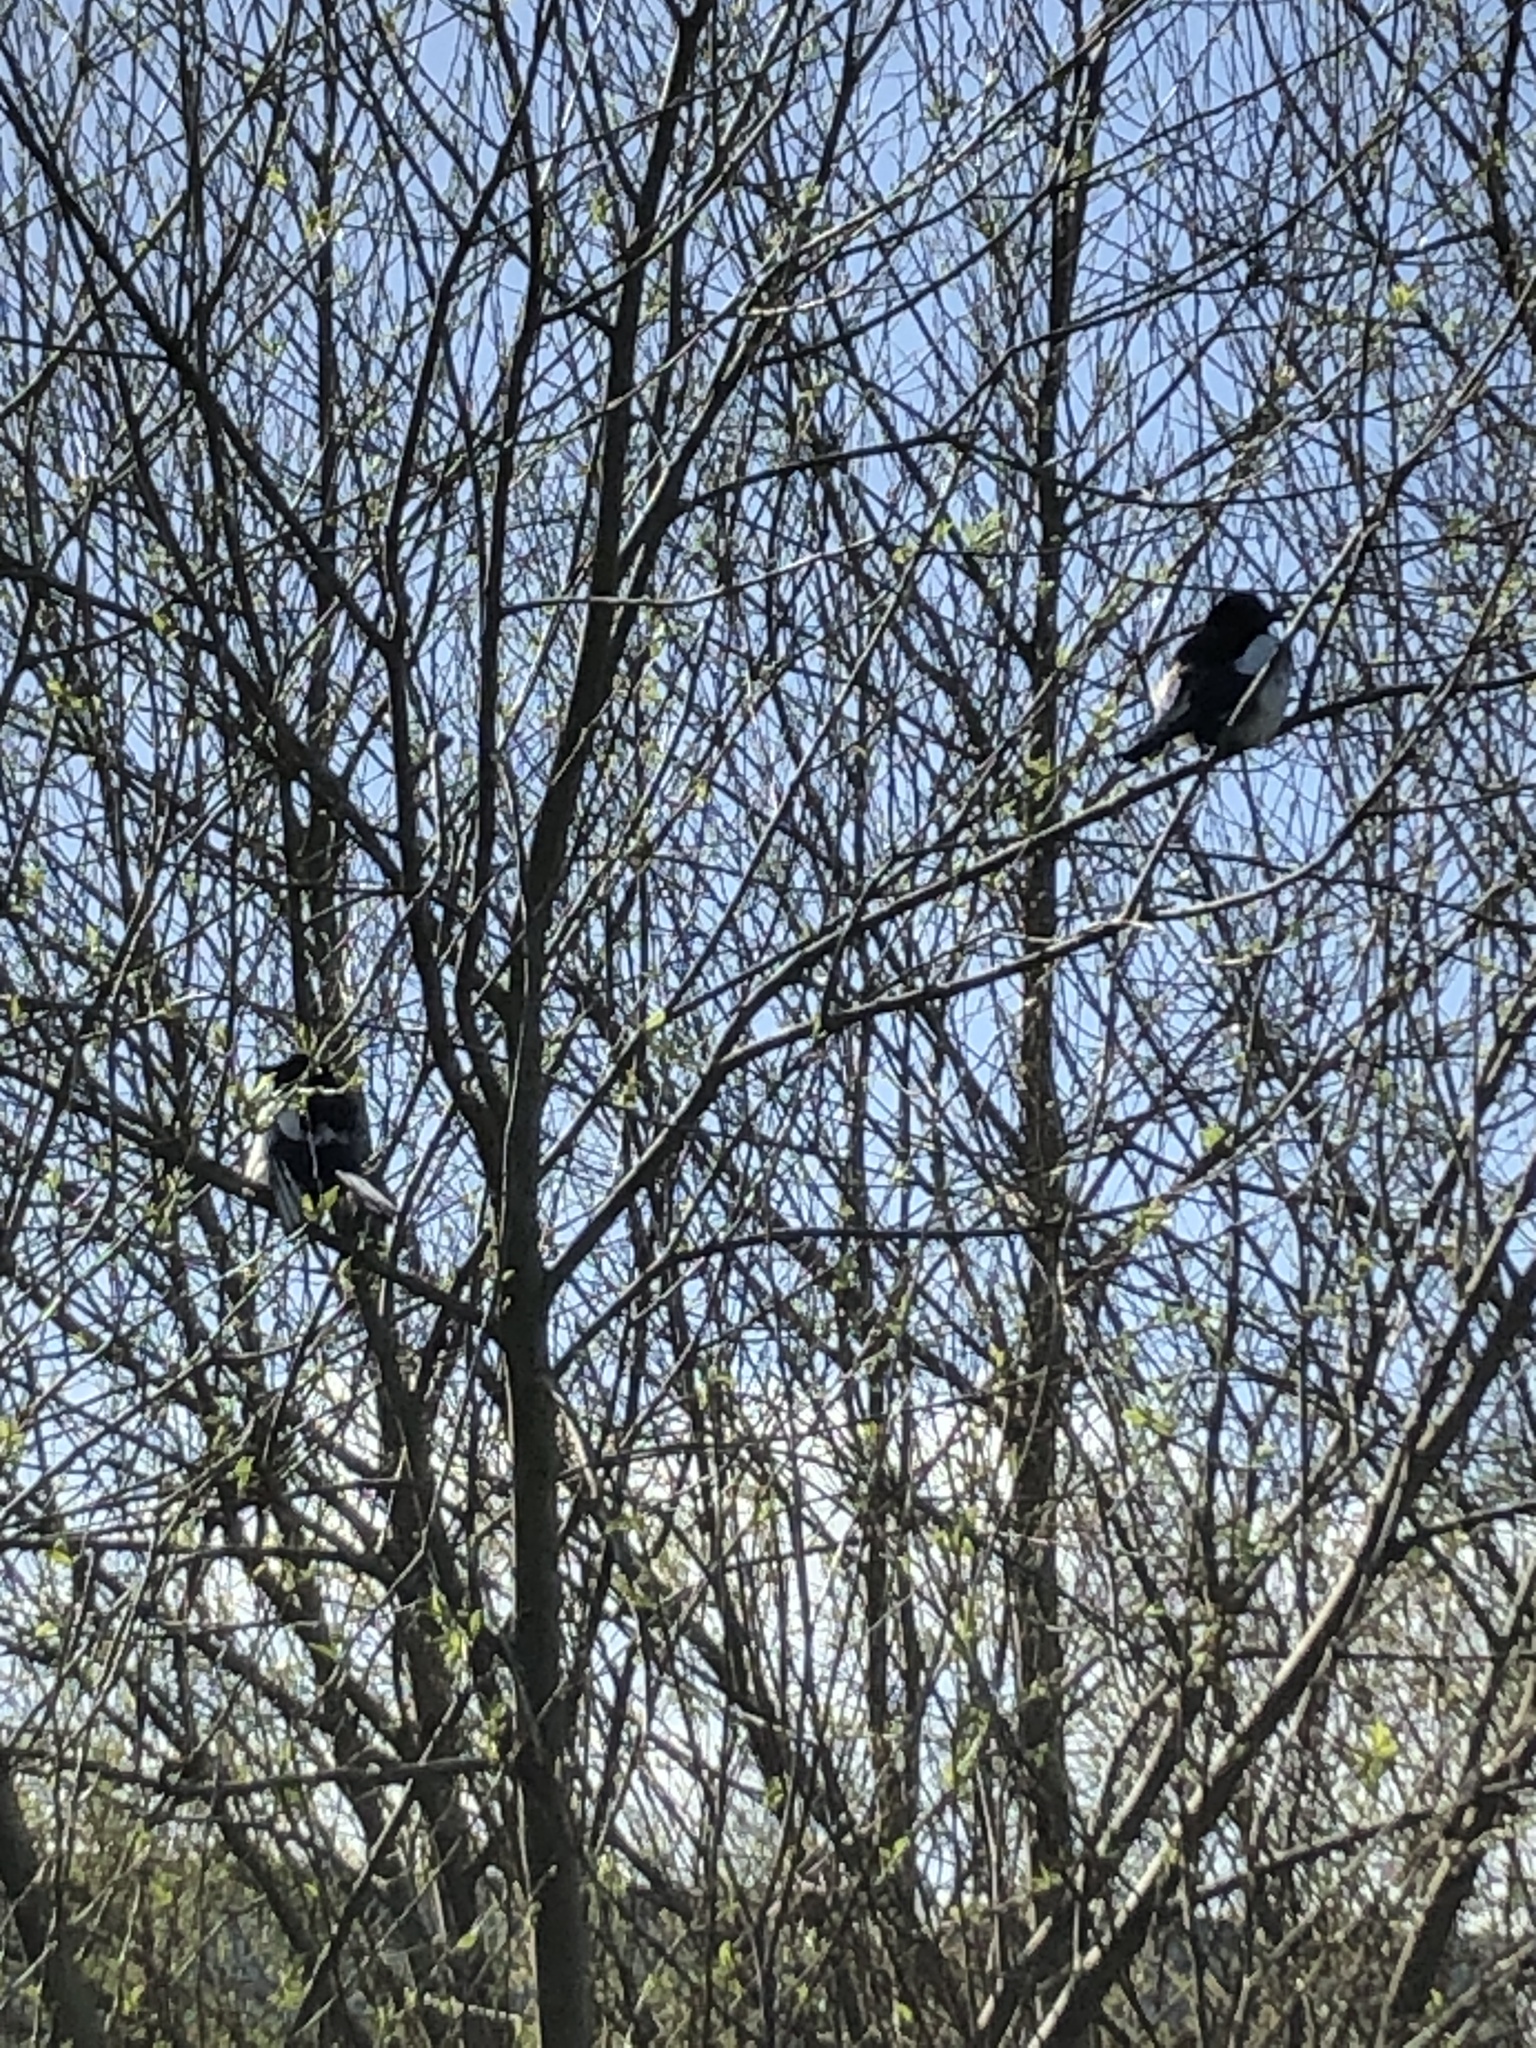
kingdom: Animalia
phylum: Chordata
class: Aves
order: Passeriformes
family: Corvidae
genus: Pica
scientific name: Pica pica
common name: Eurasian magpie
